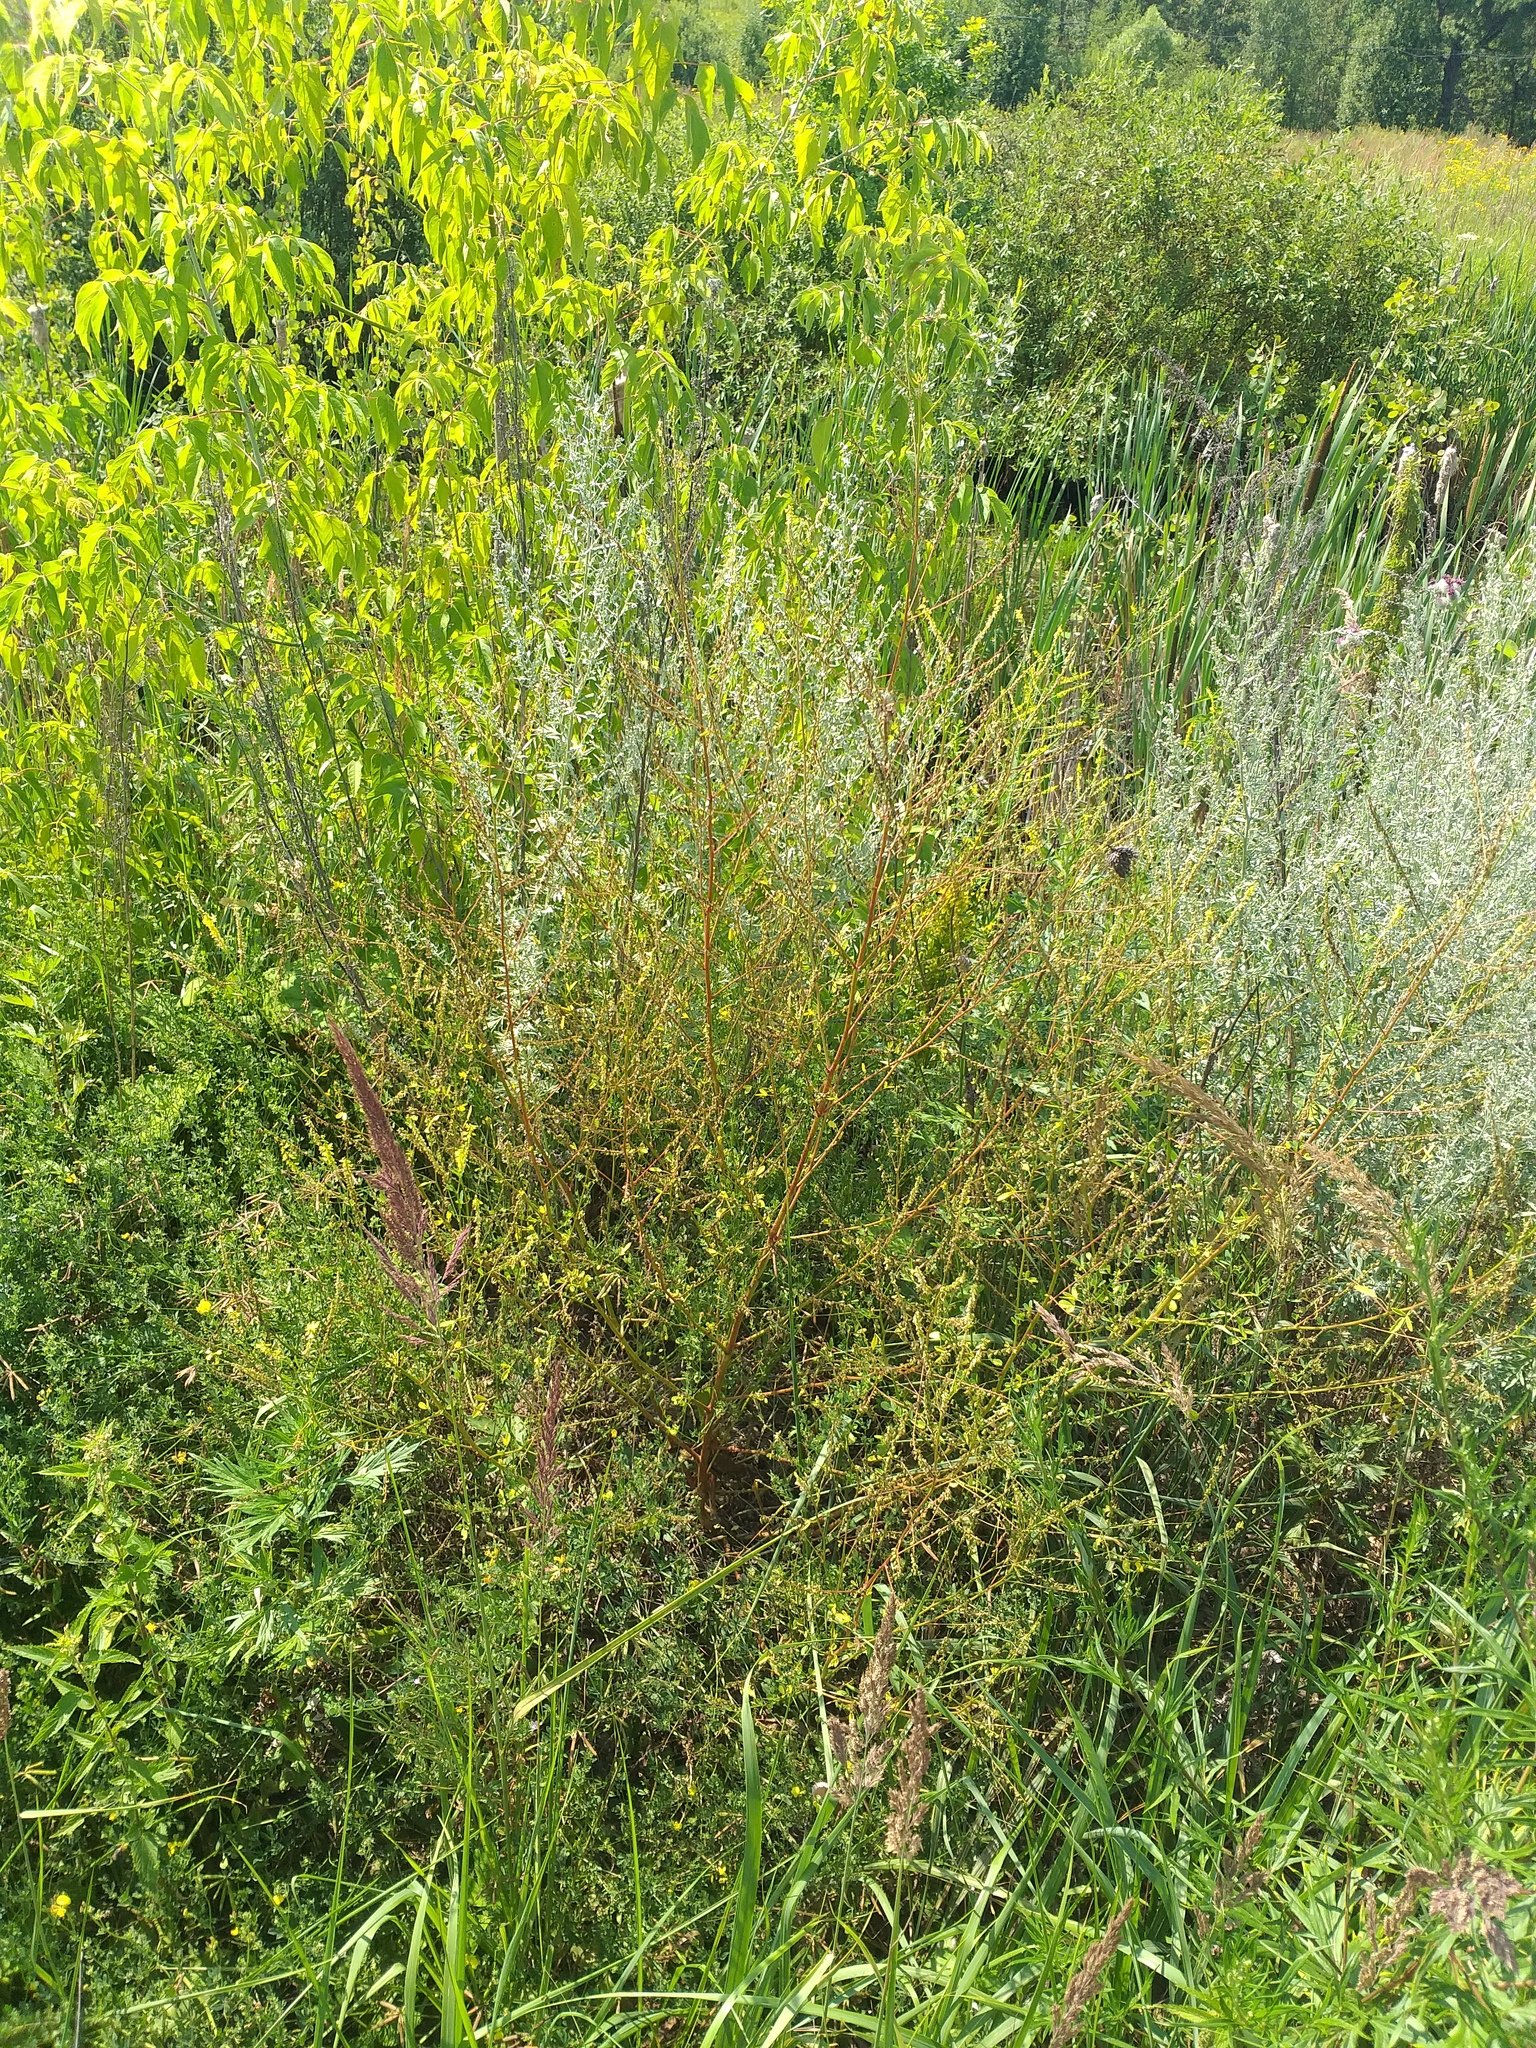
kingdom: Plantae
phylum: Tracheophyta
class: Magnoliopsida
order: Fabales
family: Fabaceae
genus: Melilotus
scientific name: Melilotus officinalis
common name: Sweetclover
